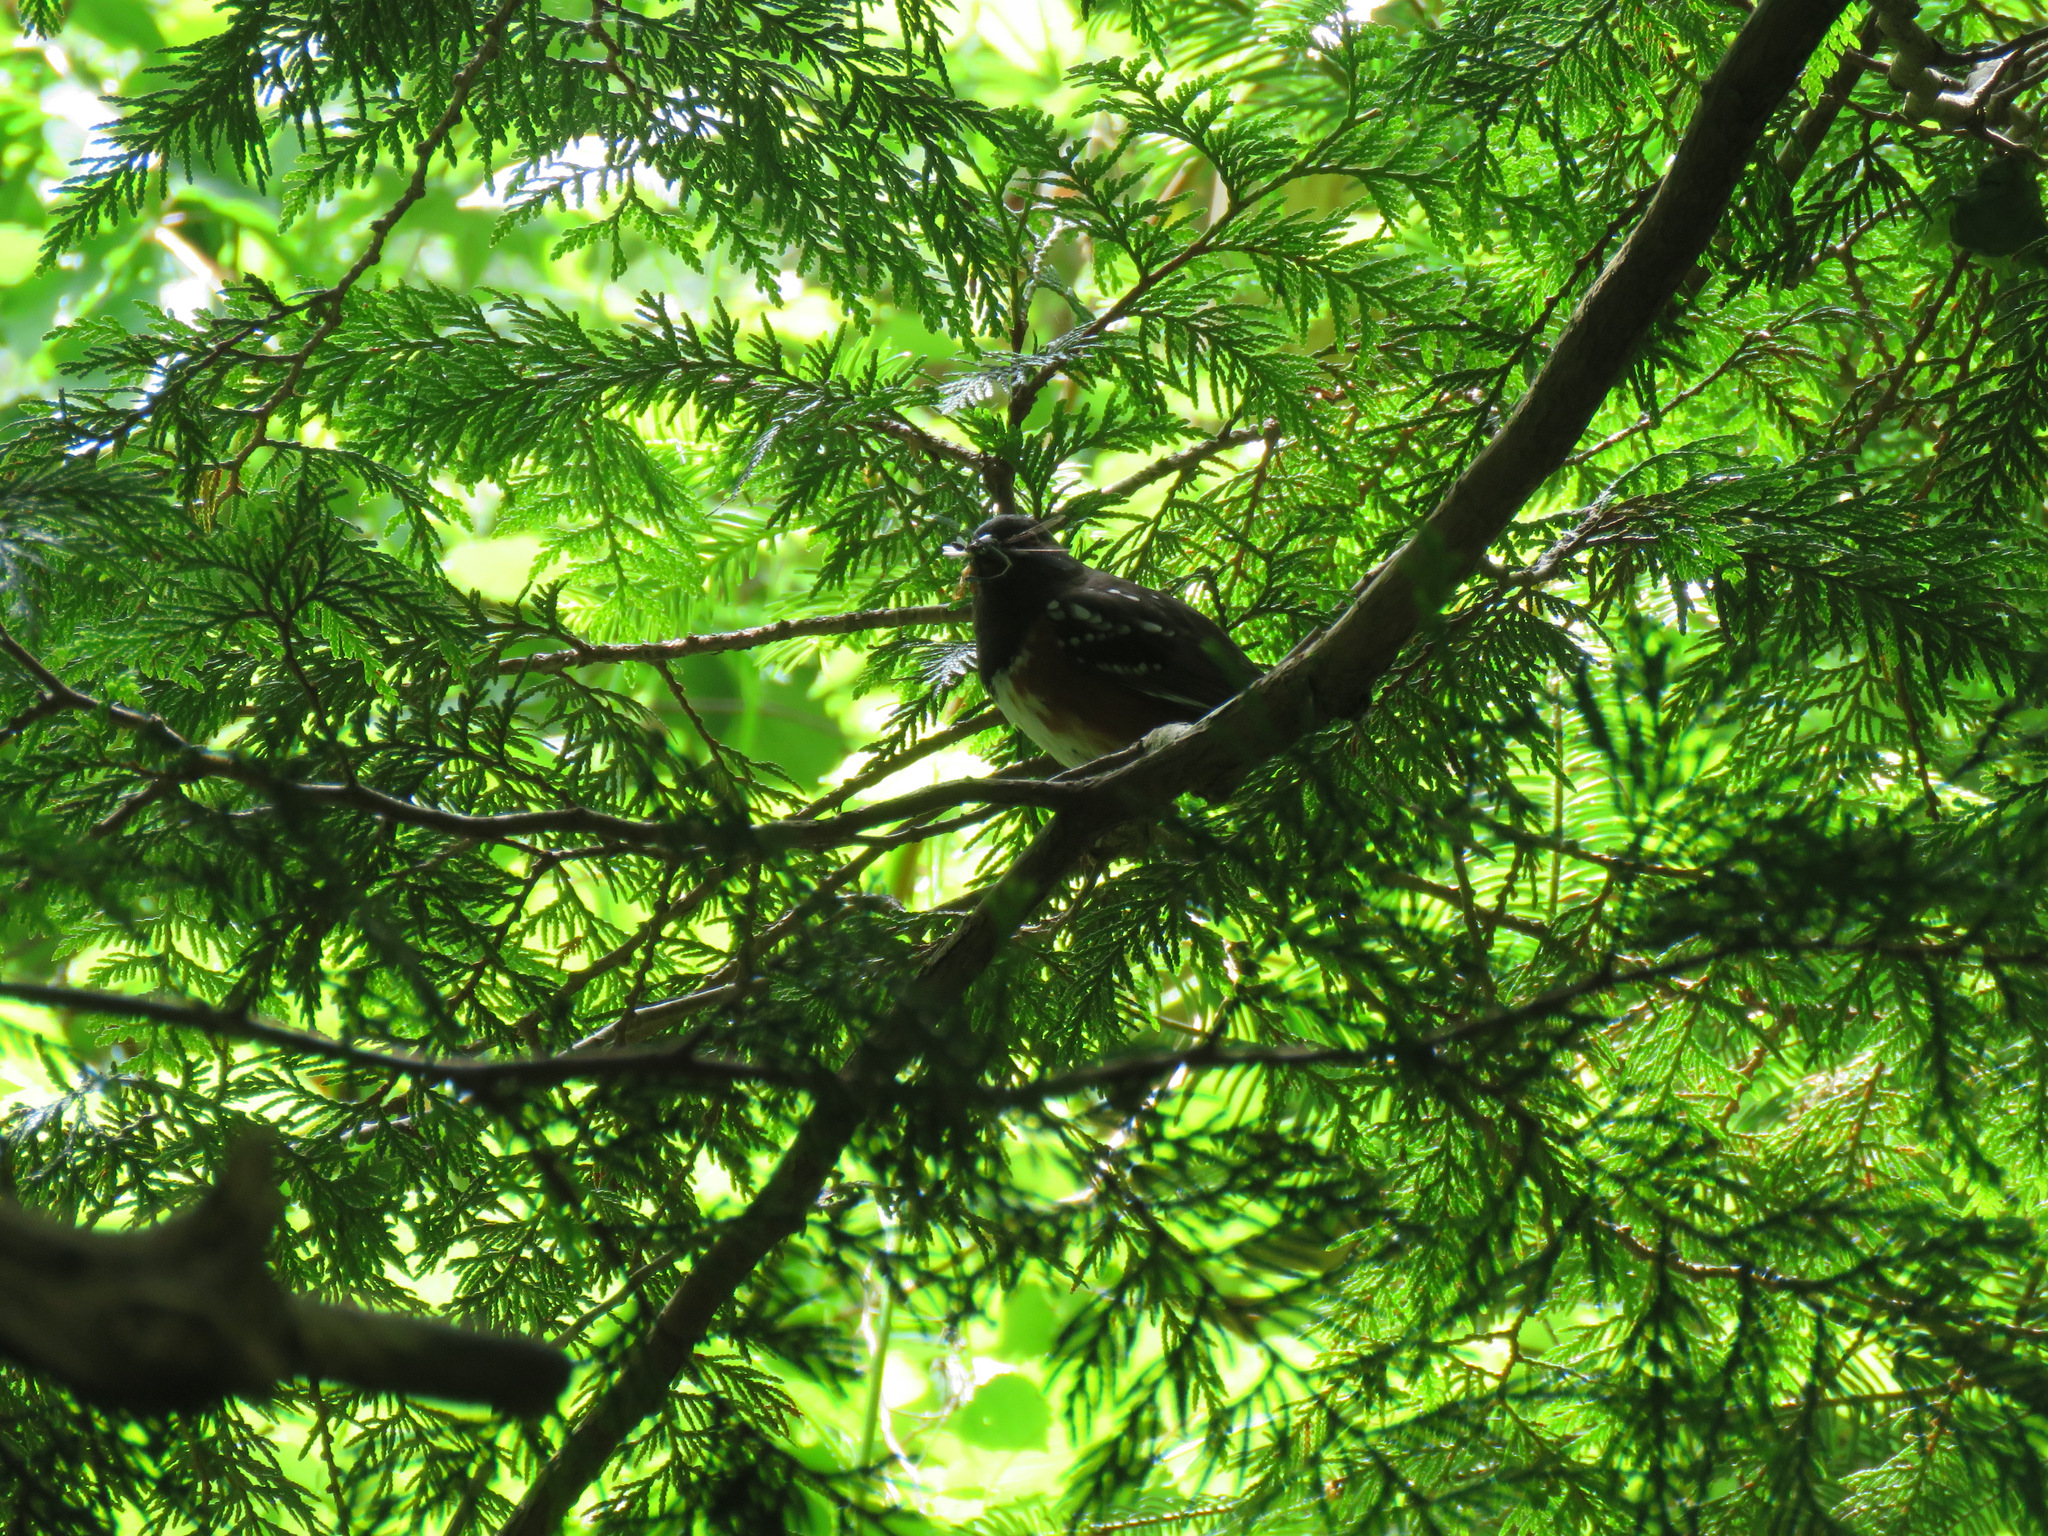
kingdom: Animalia
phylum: Chordata
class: Aves
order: Passeriformes
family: Passerellidae
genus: Pipilo
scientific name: Pipilo maculatus
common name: Spotted towhee
